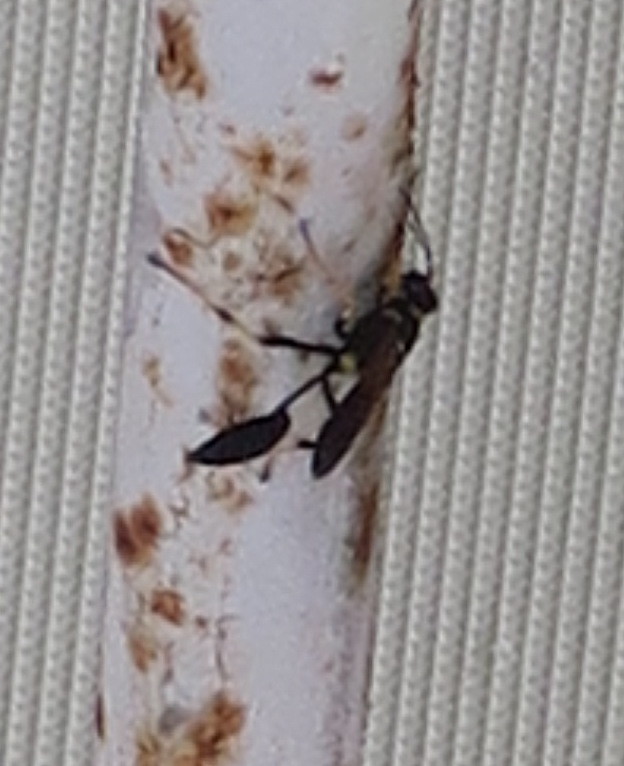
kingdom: Animalia
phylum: Arthropoda
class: Insecta
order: Hymenoptera
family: Sphecidae
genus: Sceliphron
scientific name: Sceliphron caementarium
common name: Mud dauber
